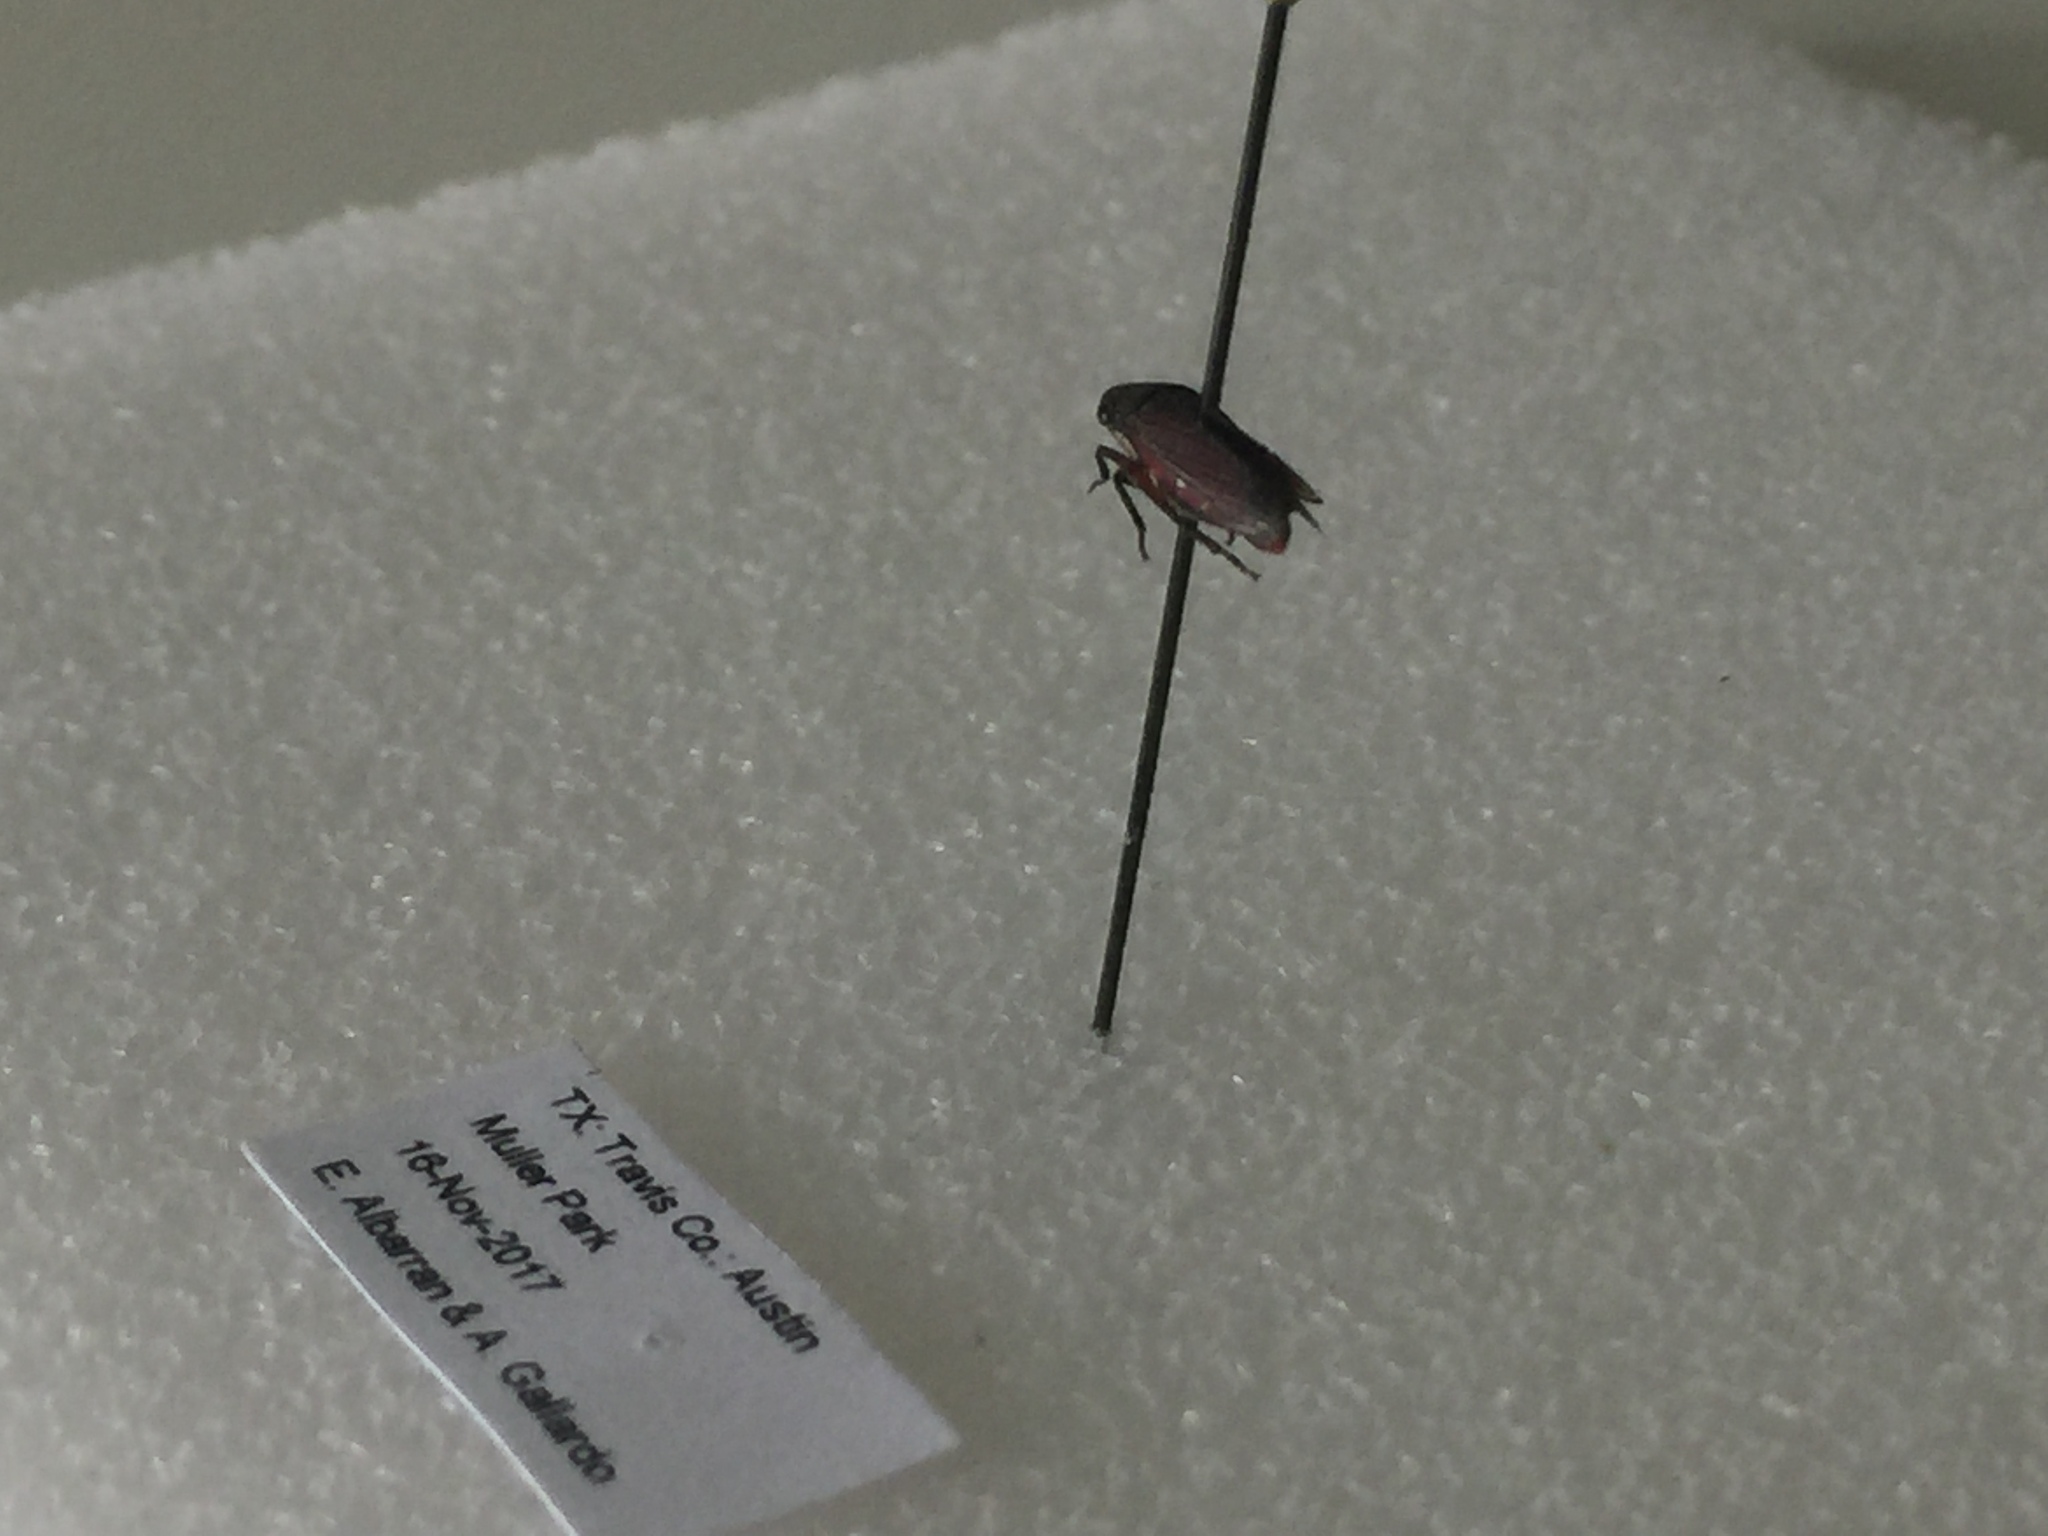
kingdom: Animalia
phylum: Arthropoda
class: Insecta
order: Hemiptera
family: Cicadellidae
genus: Cuerna
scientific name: Cuerna costalis
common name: Lateral-lined sharpshooter
